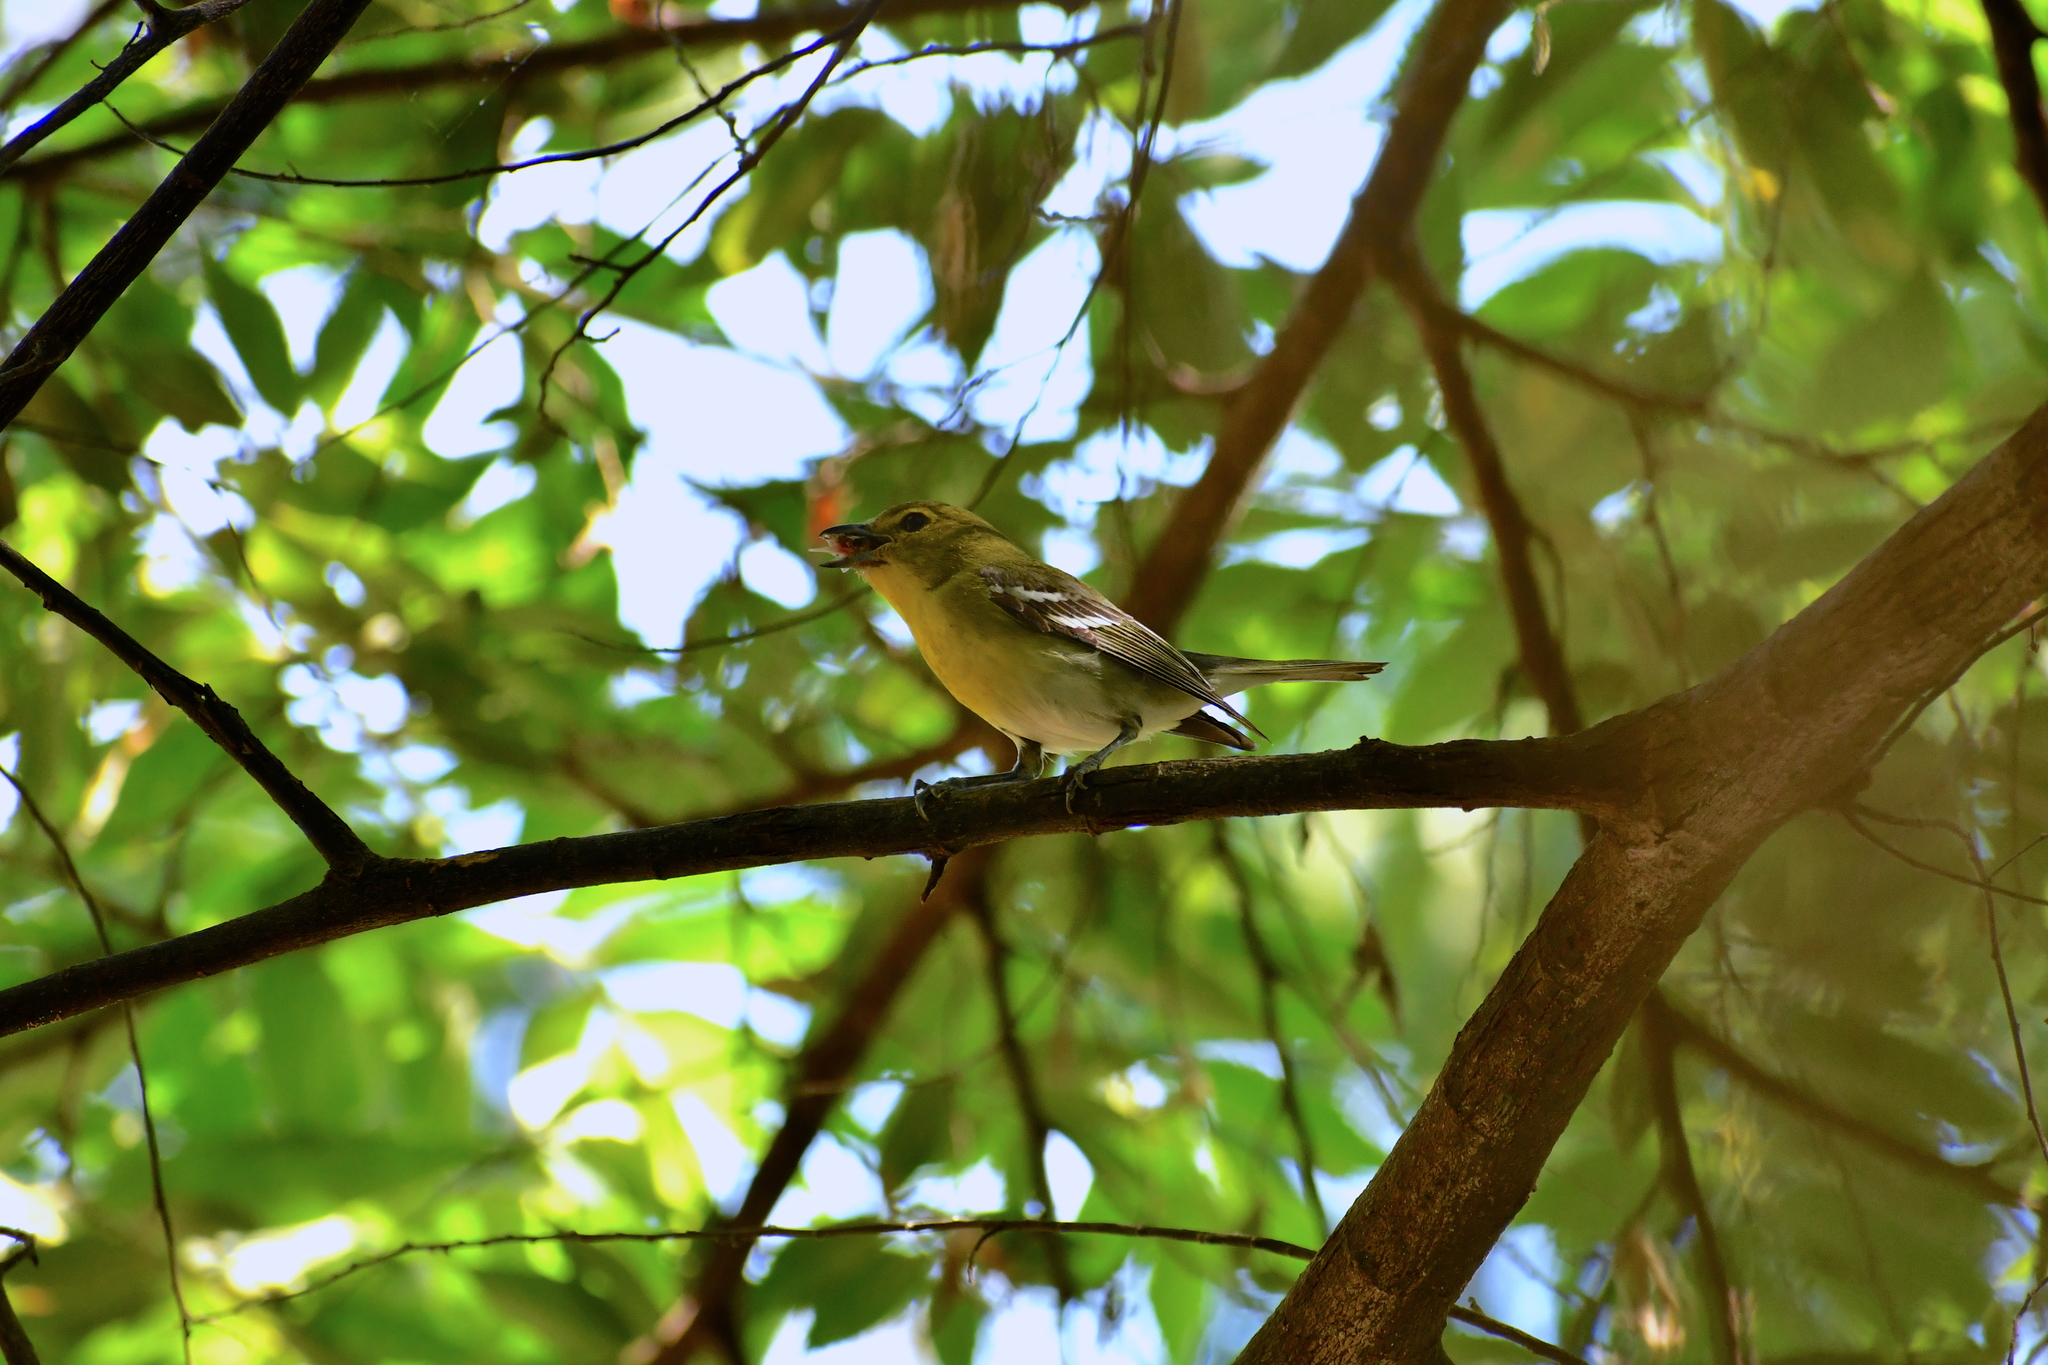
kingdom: Animalia
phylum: Chordata
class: Aves
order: Passeriformes
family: Vireonidae
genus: Vireo
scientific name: Vireo flavifrons
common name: Yellow-throated vireo
